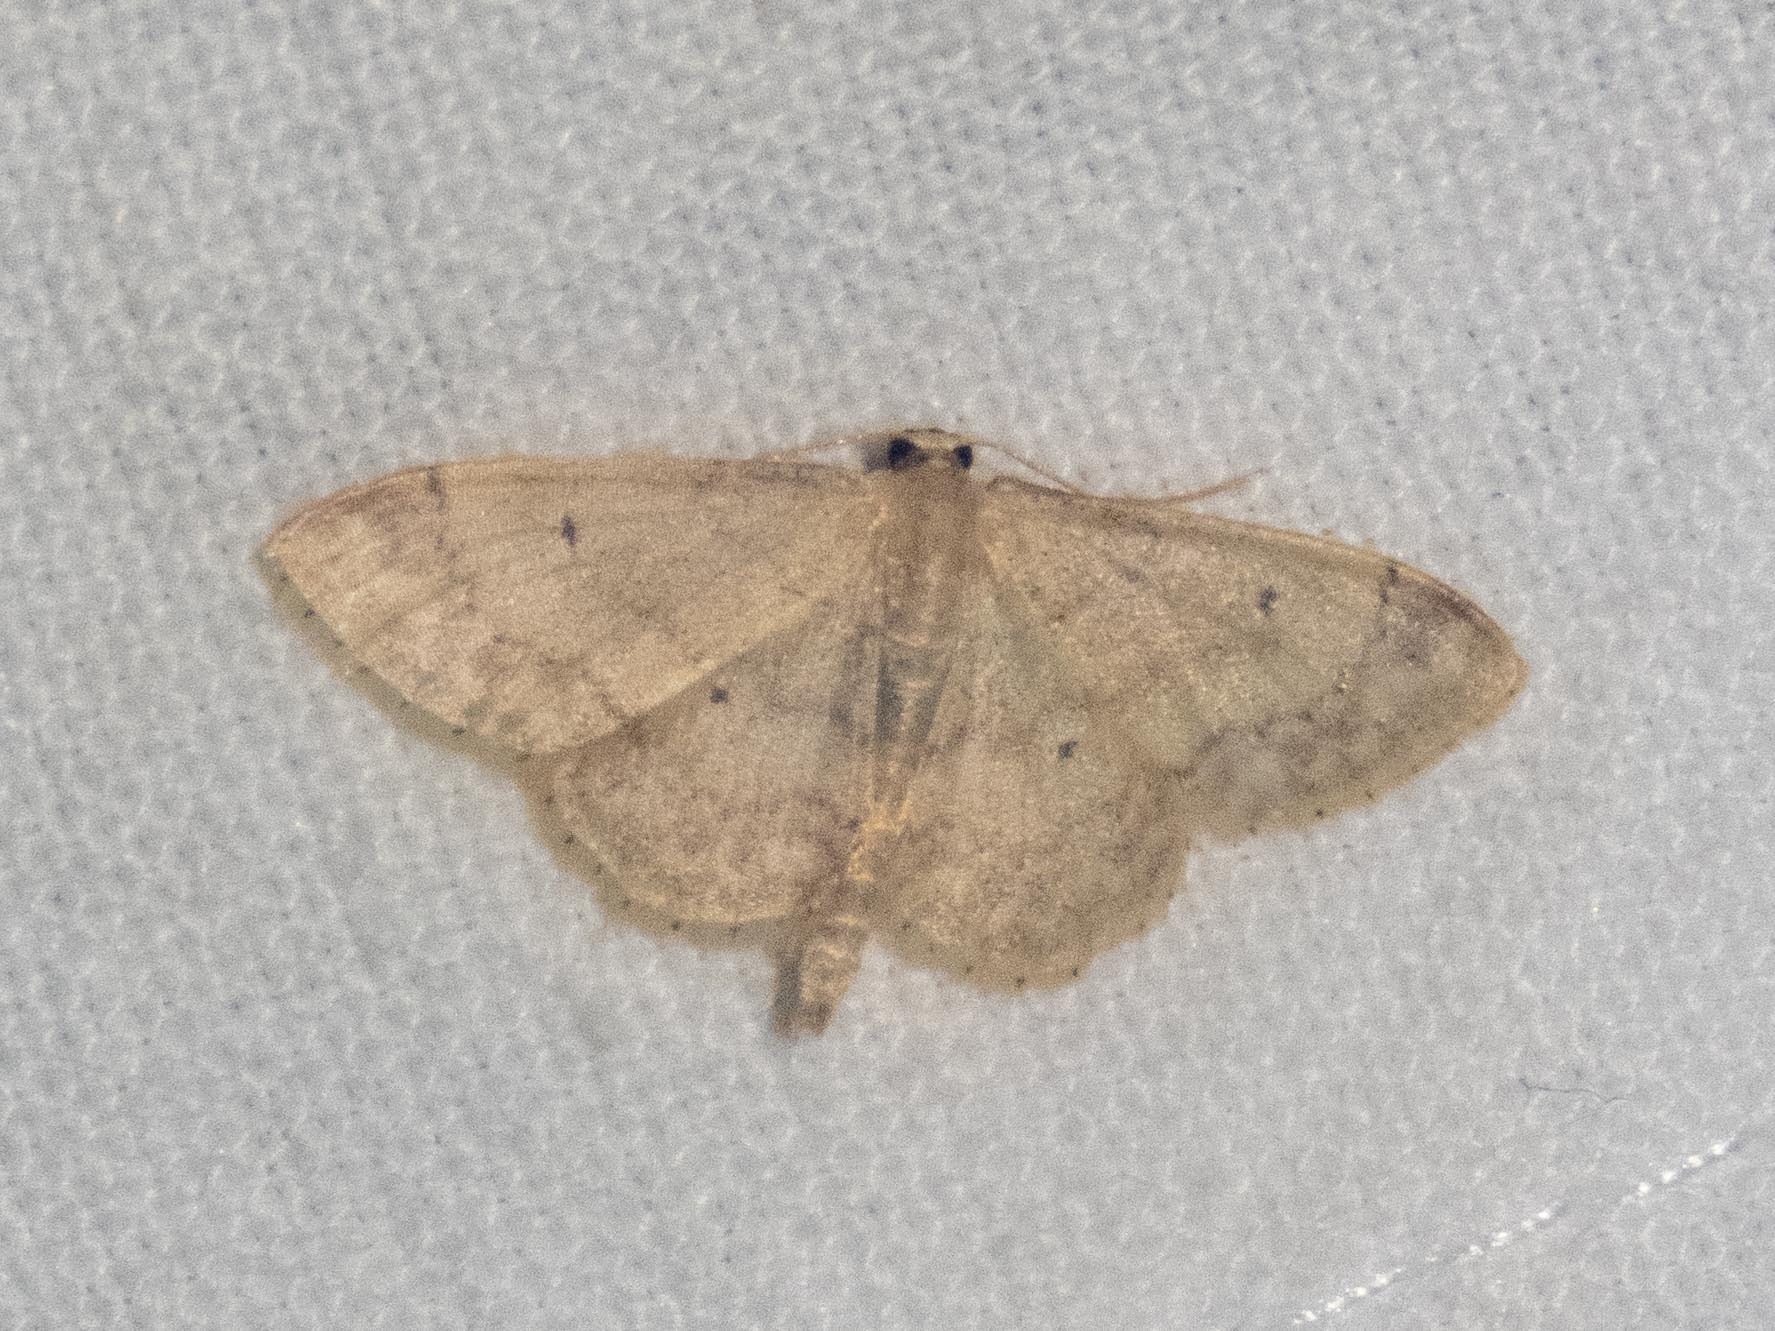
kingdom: Animalia
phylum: Arthropoda
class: Insecta
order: Lepidoptera
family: Geometridae
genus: Idaea
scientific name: Idaea biselata
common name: Small fan-footed wave
